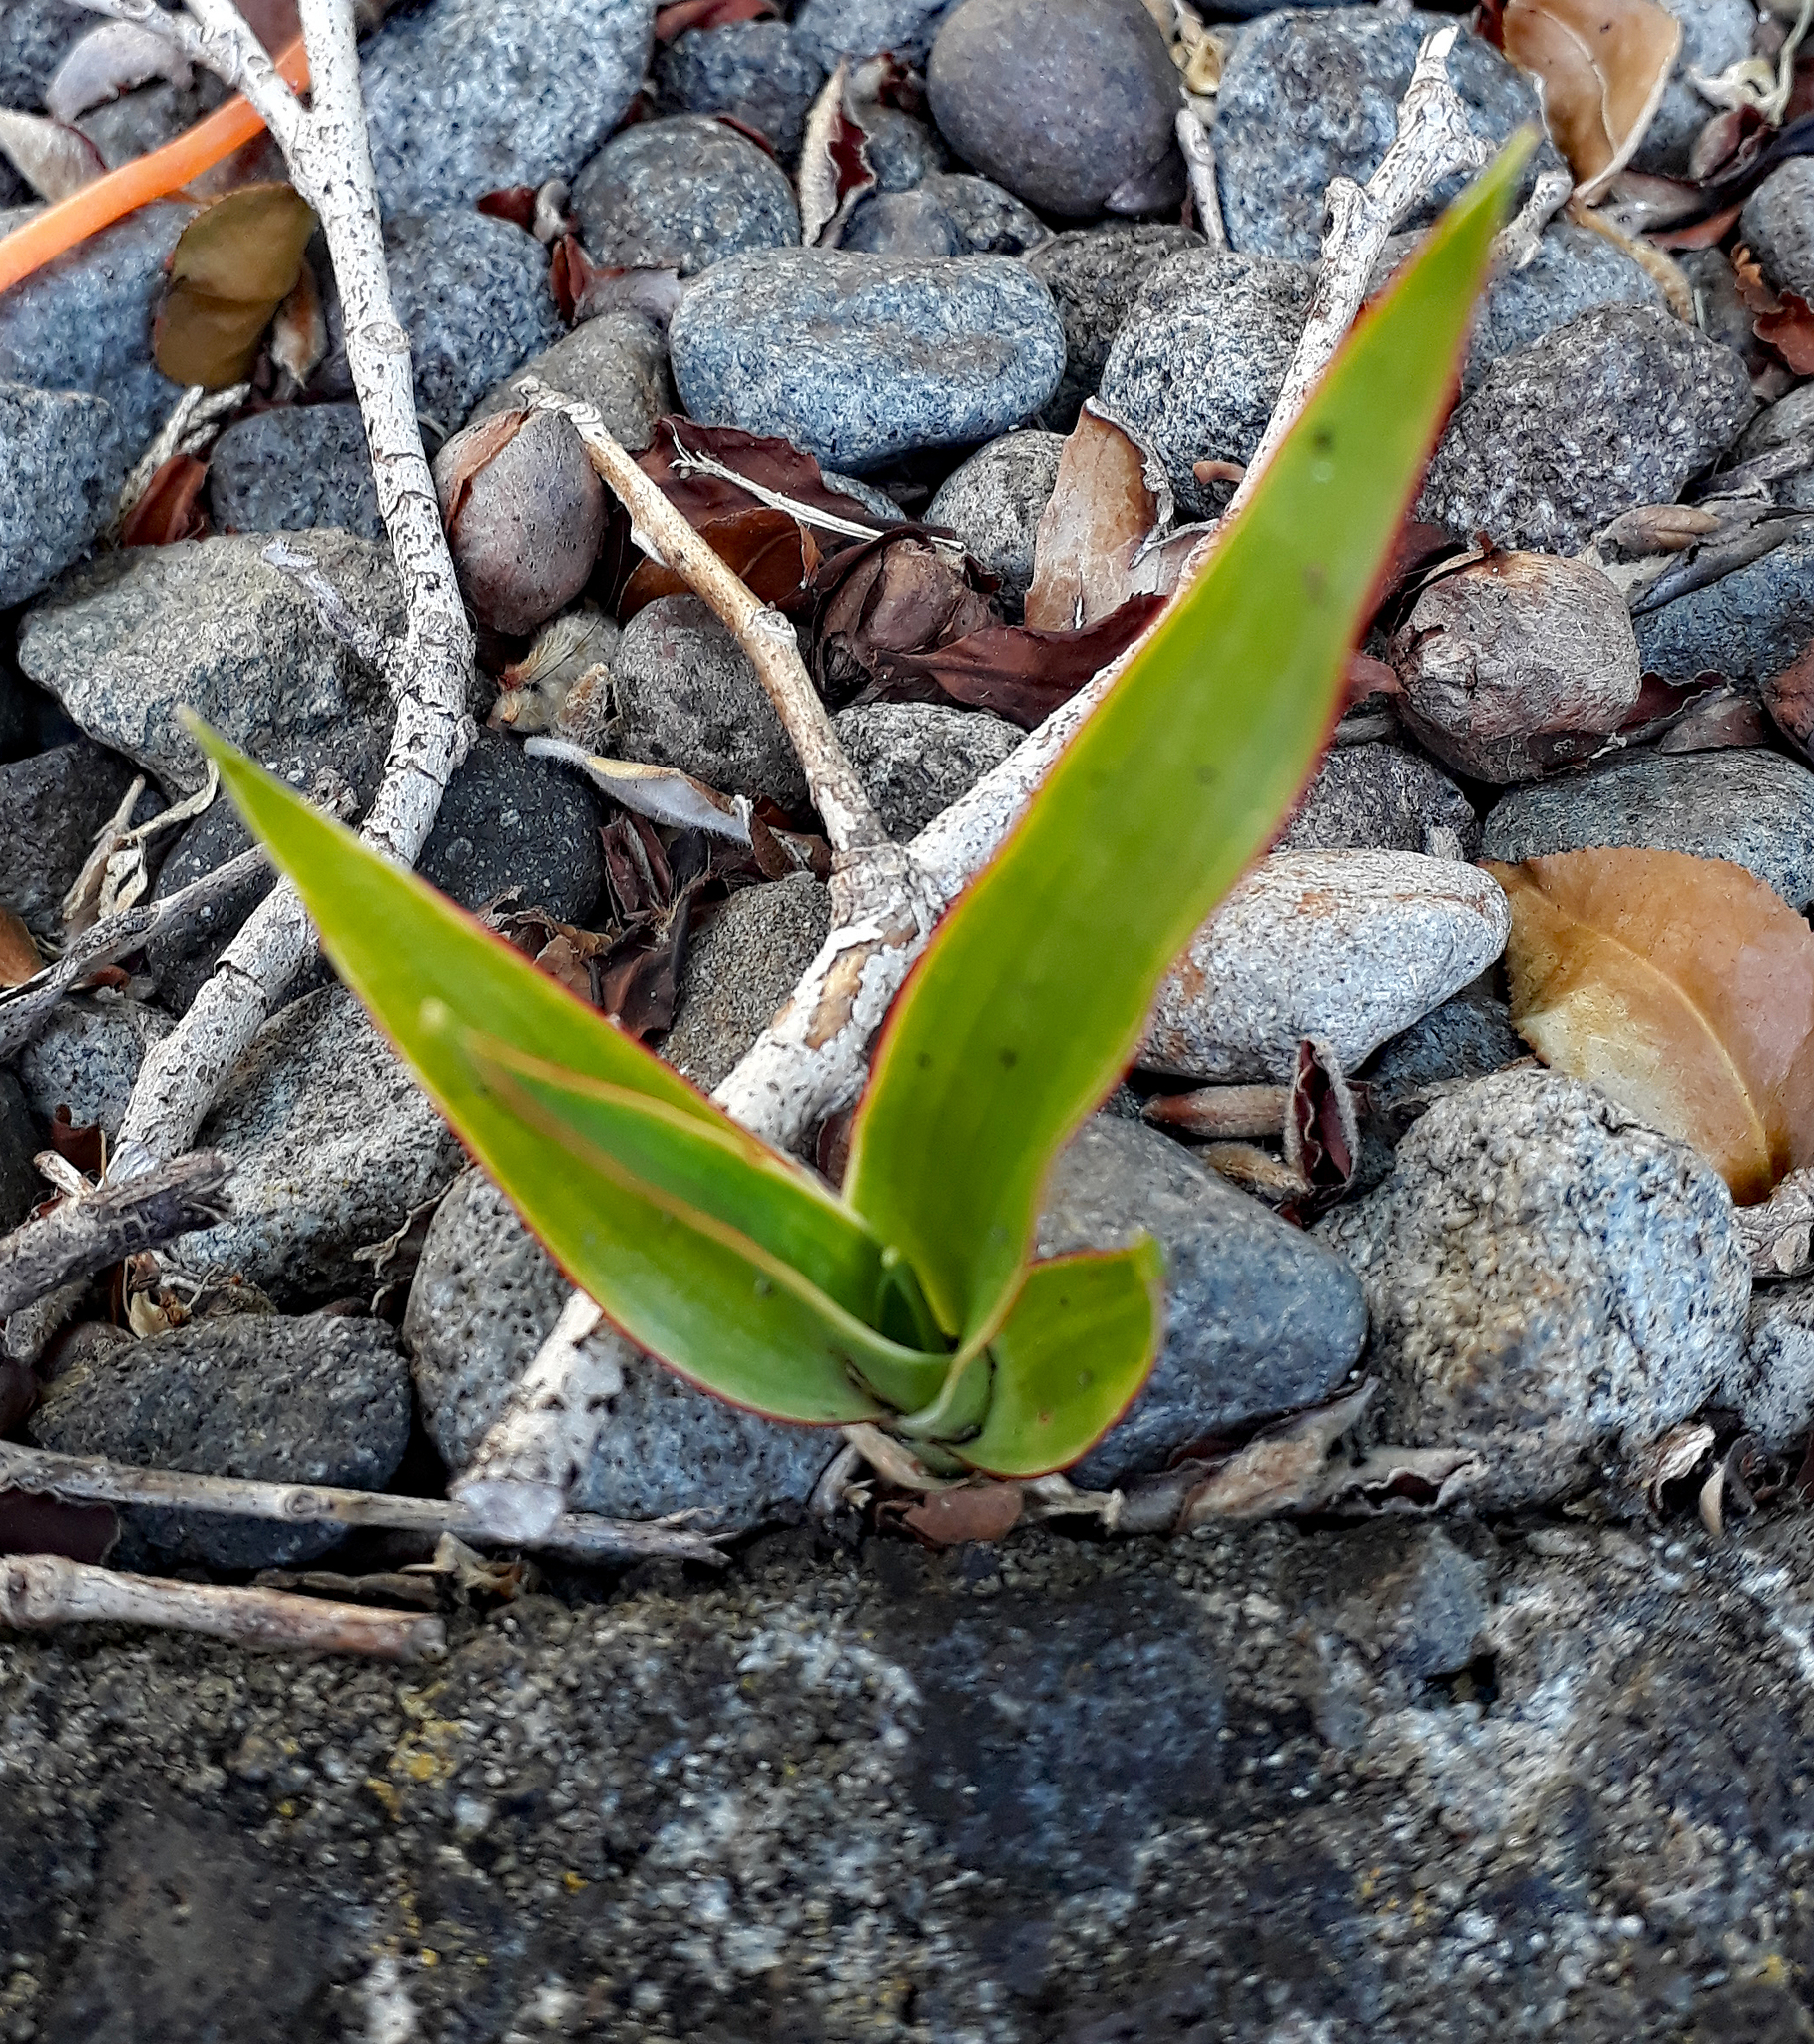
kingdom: Plantae
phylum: Tracheophyta
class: Liliopsida
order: Asparagales
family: Asparagaceae
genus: Dracaena
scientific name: Dracaena draco
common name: Canary island dragon tree
